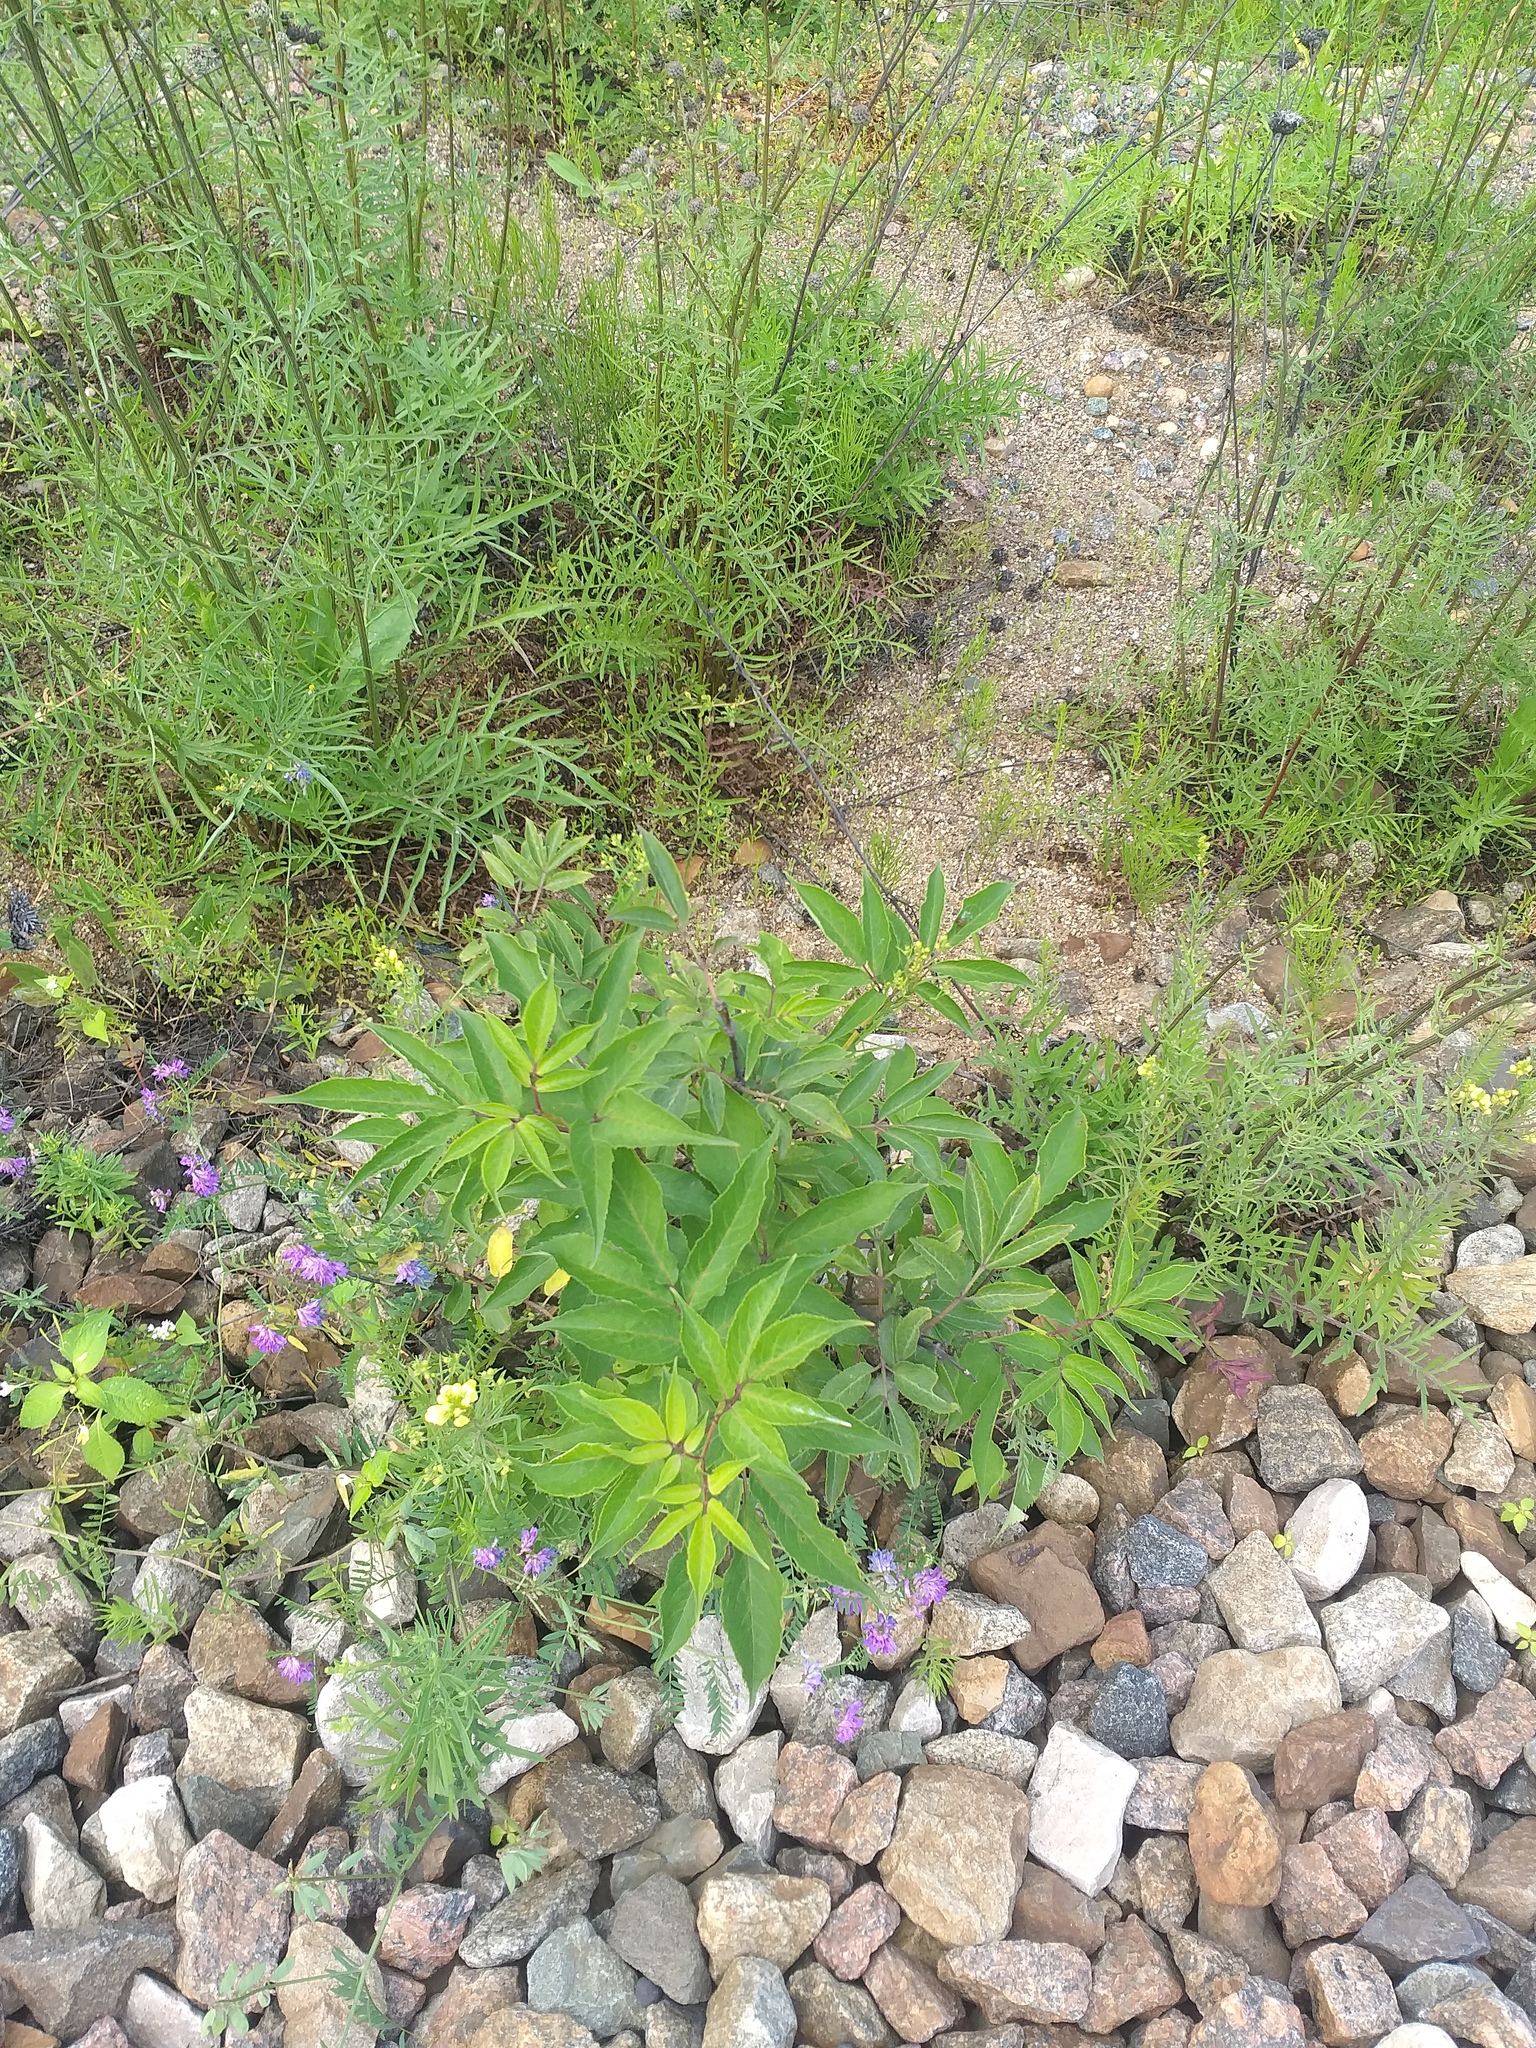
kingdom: Plantae
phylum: Tracheophyta
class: Magnoliopsida
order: Dipsacales
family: Viburnaceae
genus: Sambucus
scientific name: Sambucus racemosa
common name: Red-berried elder
